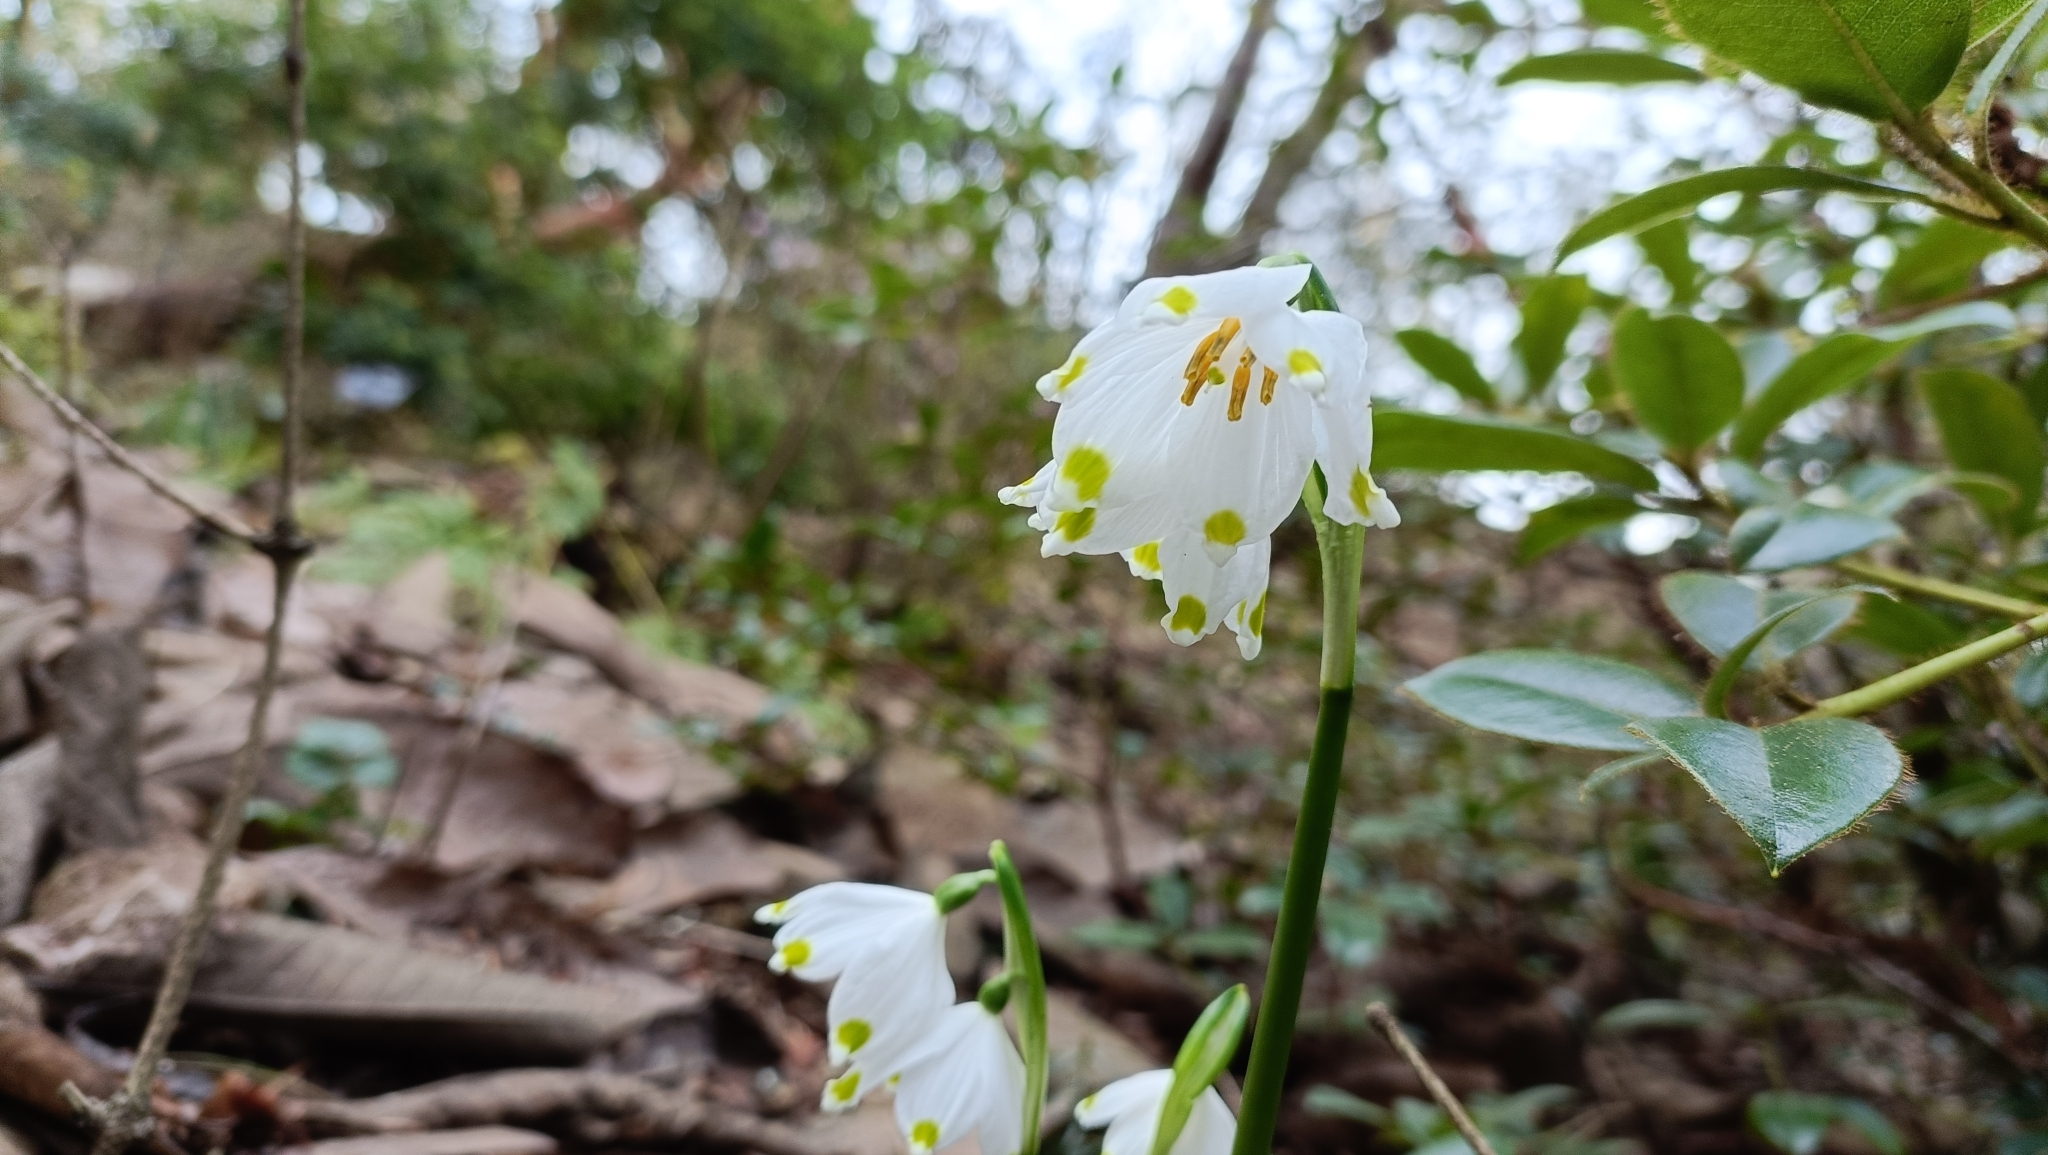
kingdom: Plantae
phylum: Tracheophyta
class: Liliopsida
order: Asparagales
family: Amaryllidaceae
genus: Leucojum
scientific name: Leucojum vernum
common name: Spring snowflake
